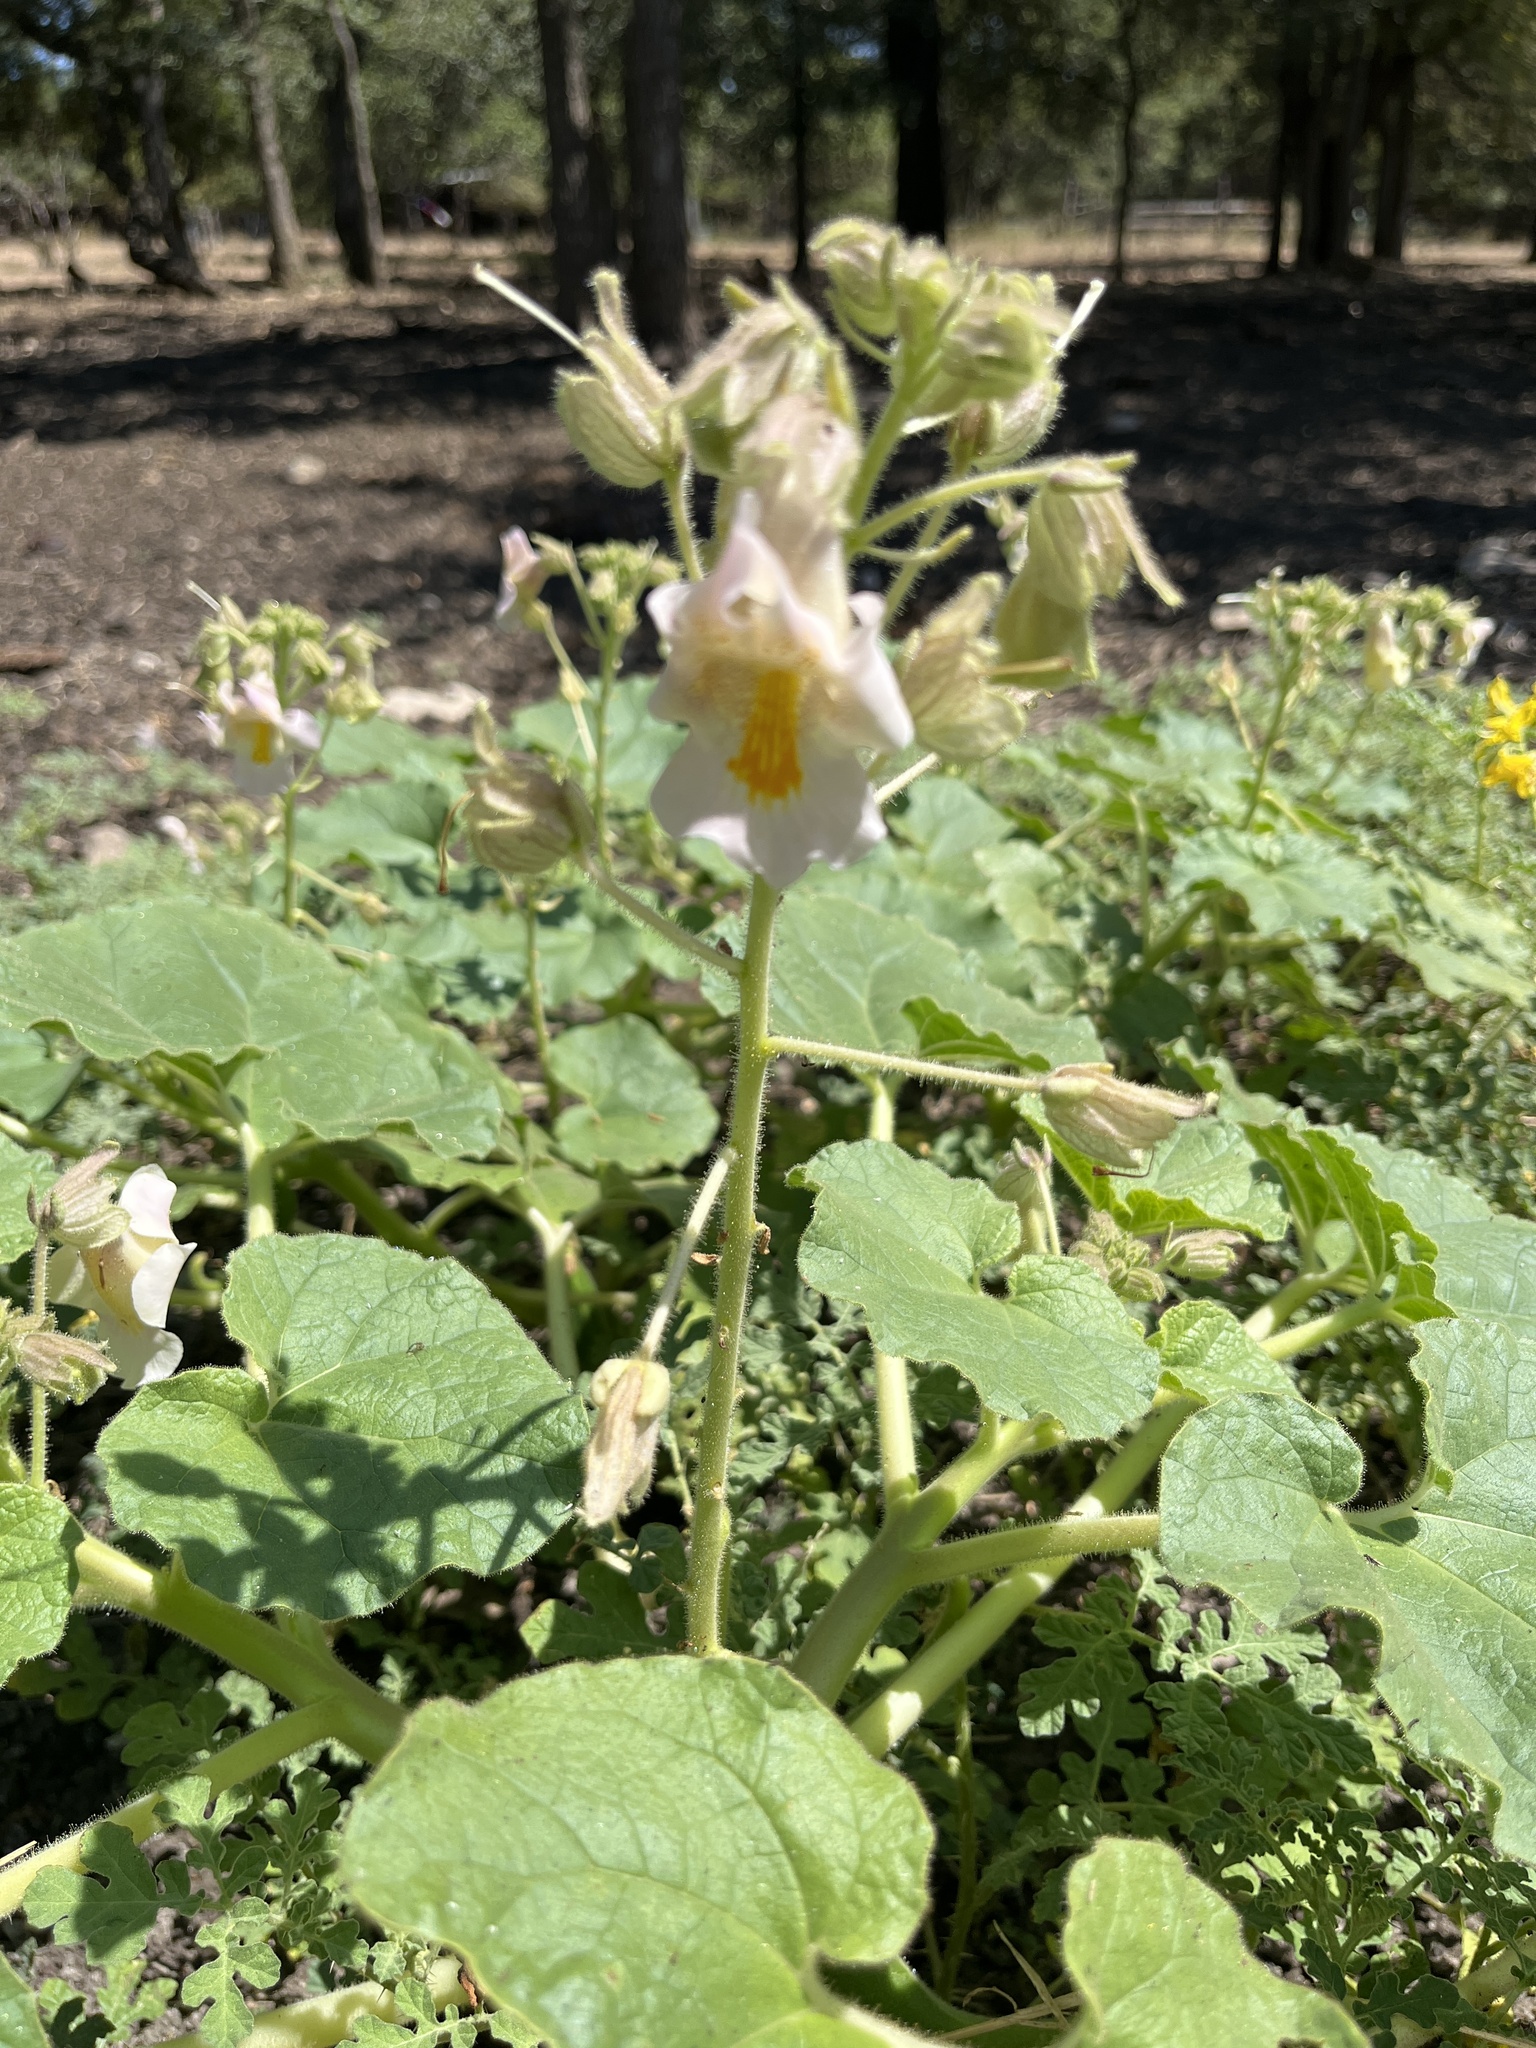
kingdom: Plantae
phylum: Tracheophyta
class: Magnoliopsida
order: Lamiales
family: Martyniaceae
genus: Proboscidea
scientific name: Proboscidea louisianica
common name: Elephant tusks
